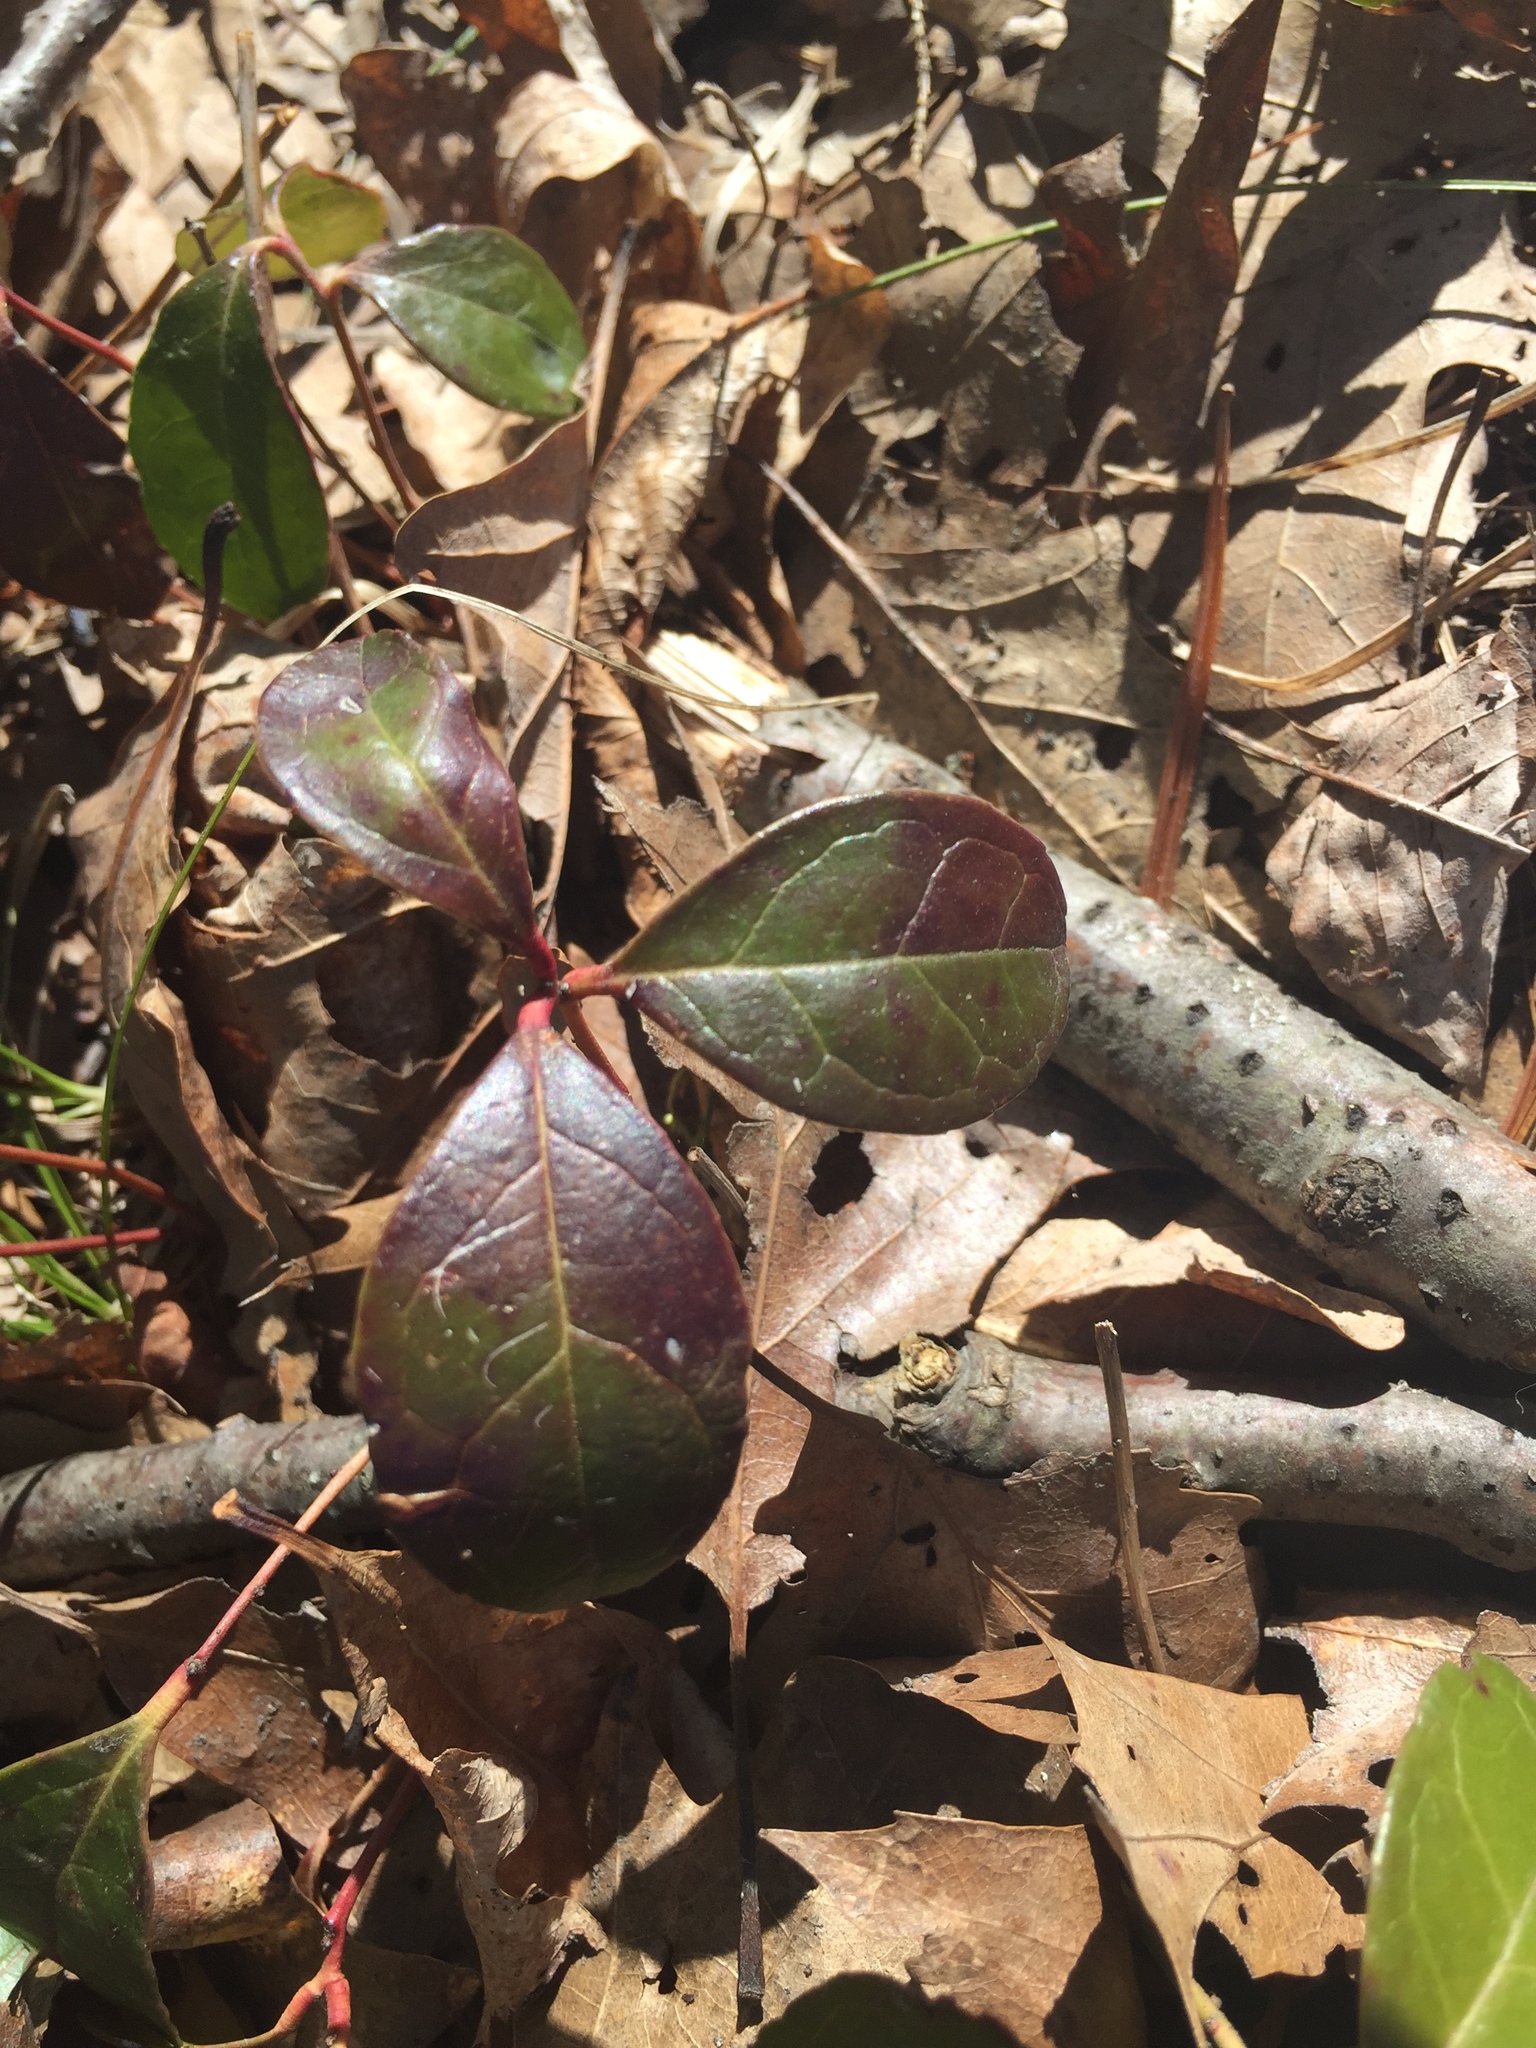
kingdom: Plantae
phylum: Tracheophyta
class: Magnoliopsida
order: Ericales
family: Ericaceae
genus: Gaultheria
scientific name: Gaultheria procumbens
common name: Checkerberry
